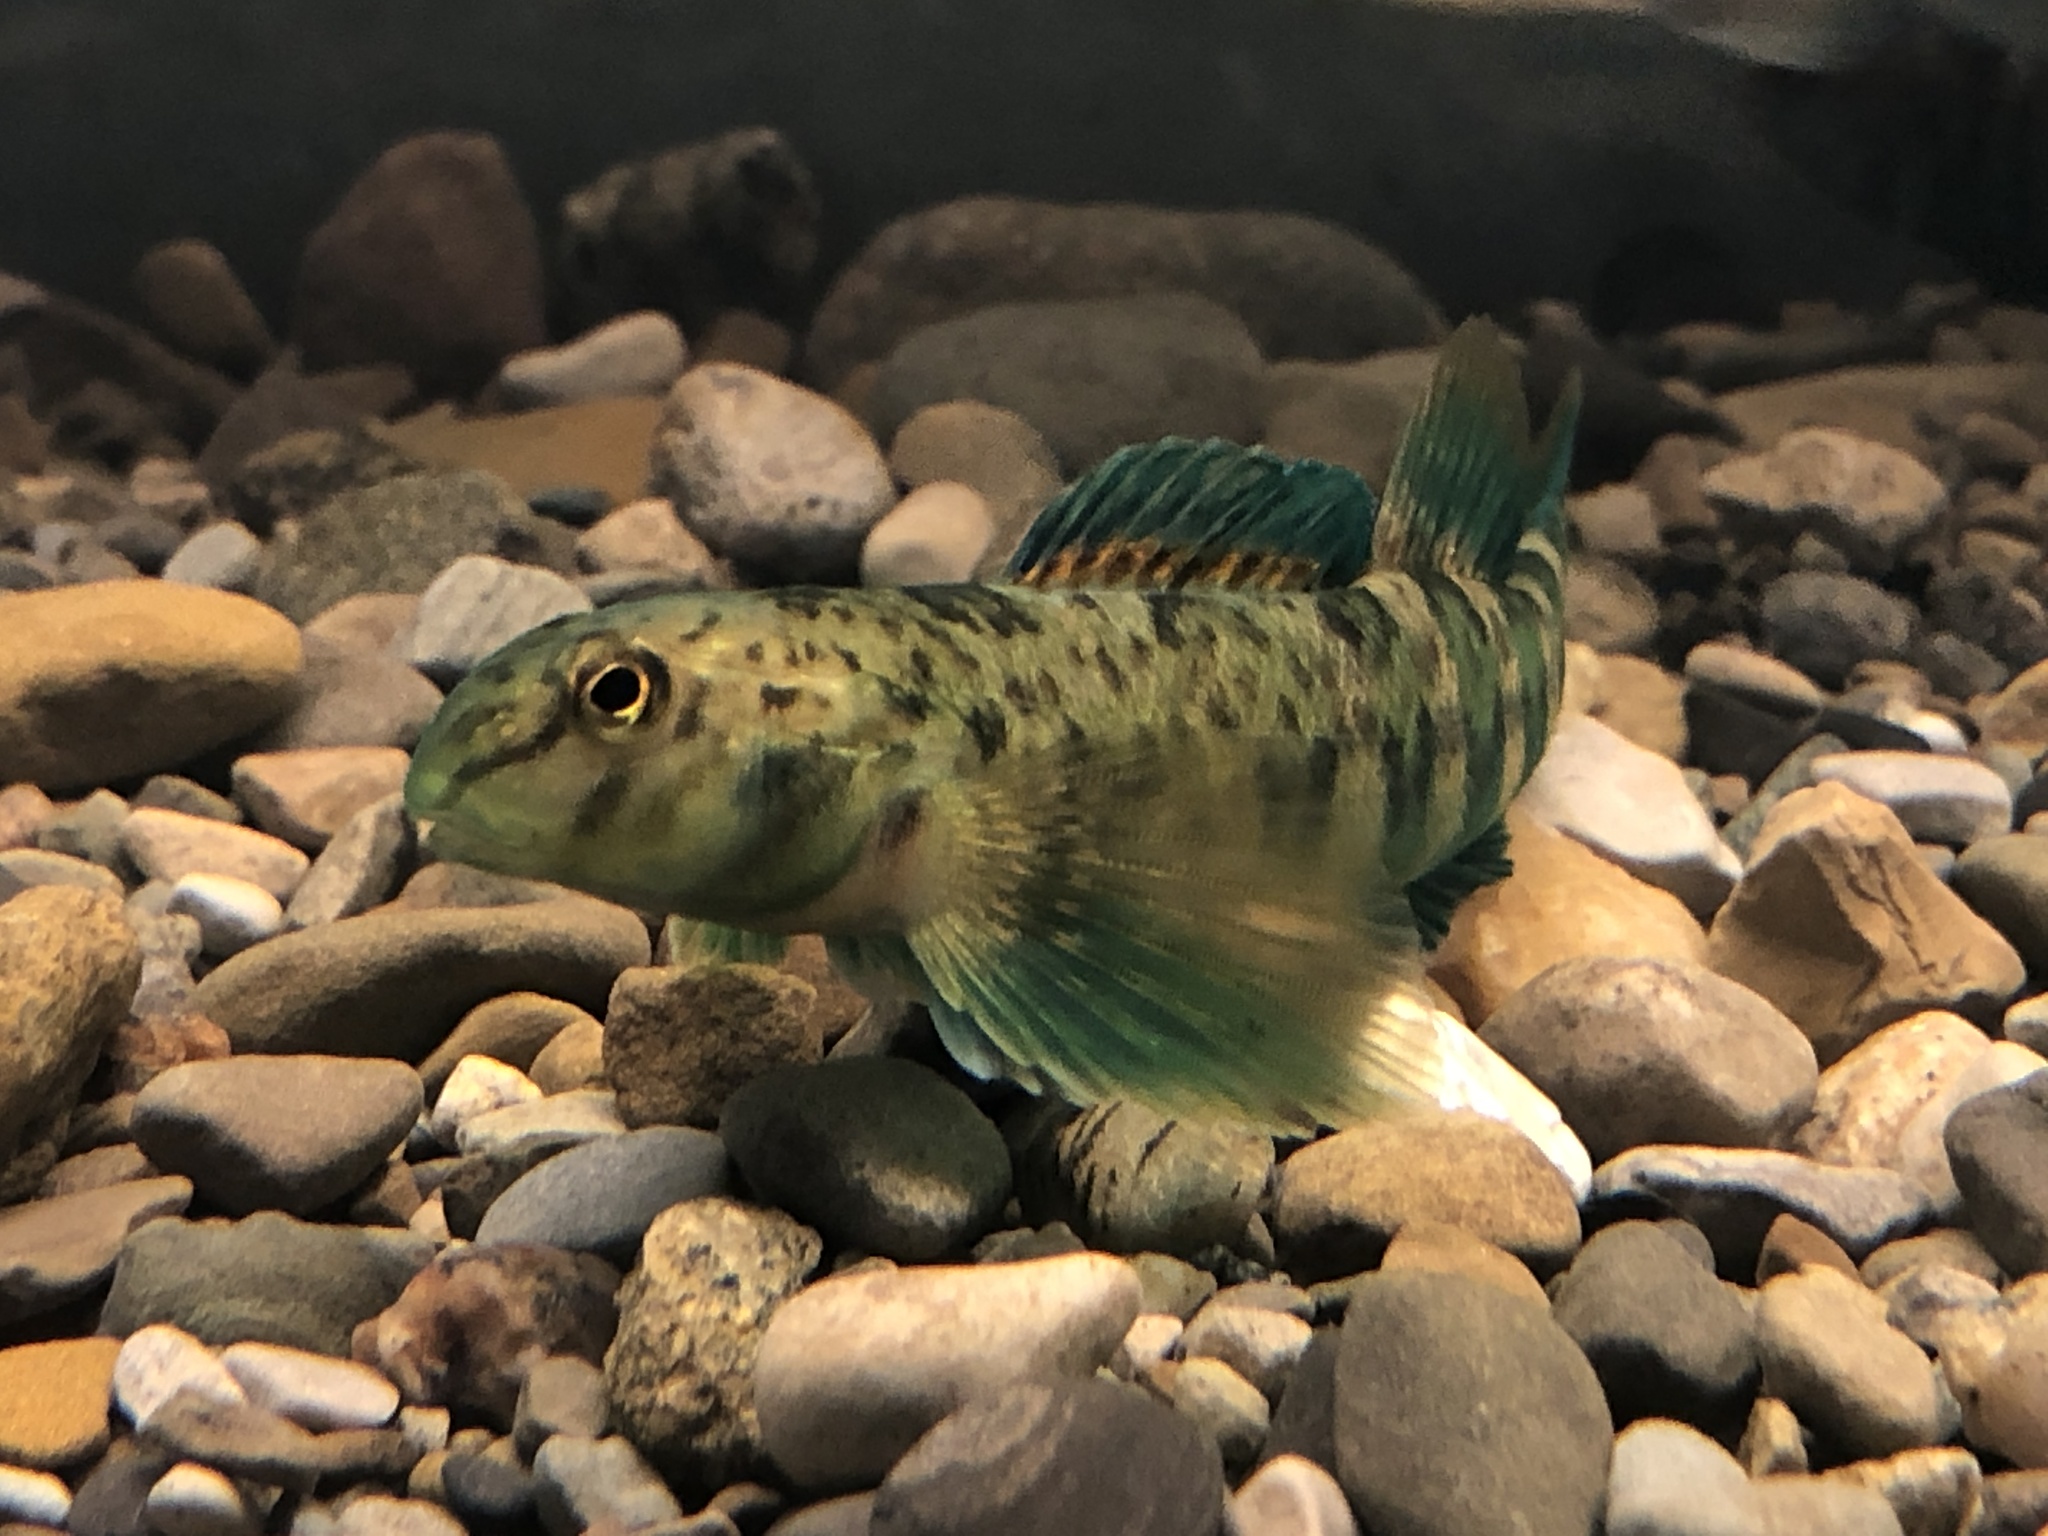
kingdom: Animalia
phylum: Chordata
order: Perciformes
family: Percidae
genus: Etheostoma
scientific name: Etheostoma blennioides
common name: Greenside darter
